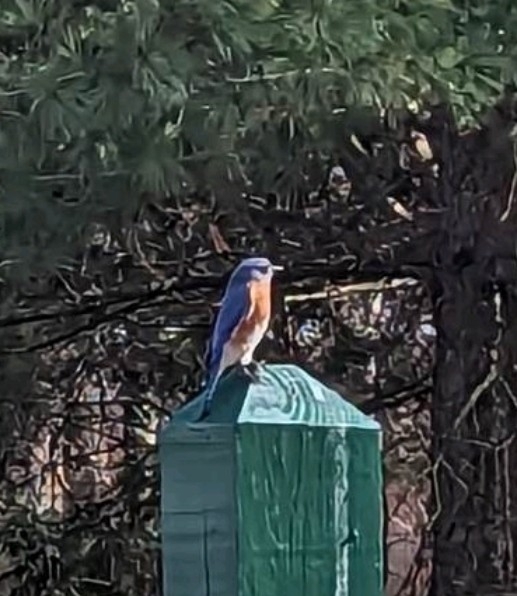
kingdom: Animalia
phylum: Chordata
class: Aves
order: Passeriformes
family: Turdidae
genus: Sialia
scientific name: Sialia sialis
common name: Eastern bluebird
